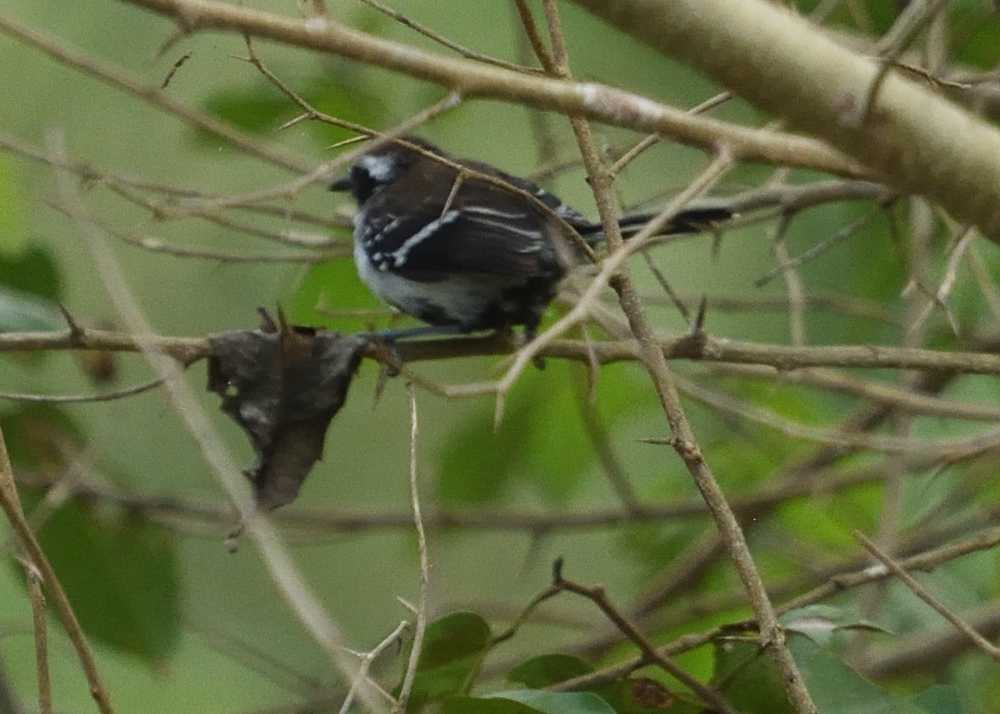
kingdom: Animalia
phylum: Chordata
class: Aves
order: Passeriformes
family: Thamnophilidae
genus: Formicivora
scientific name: Formicivora intermedia
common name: Northern white-fringed antwren
